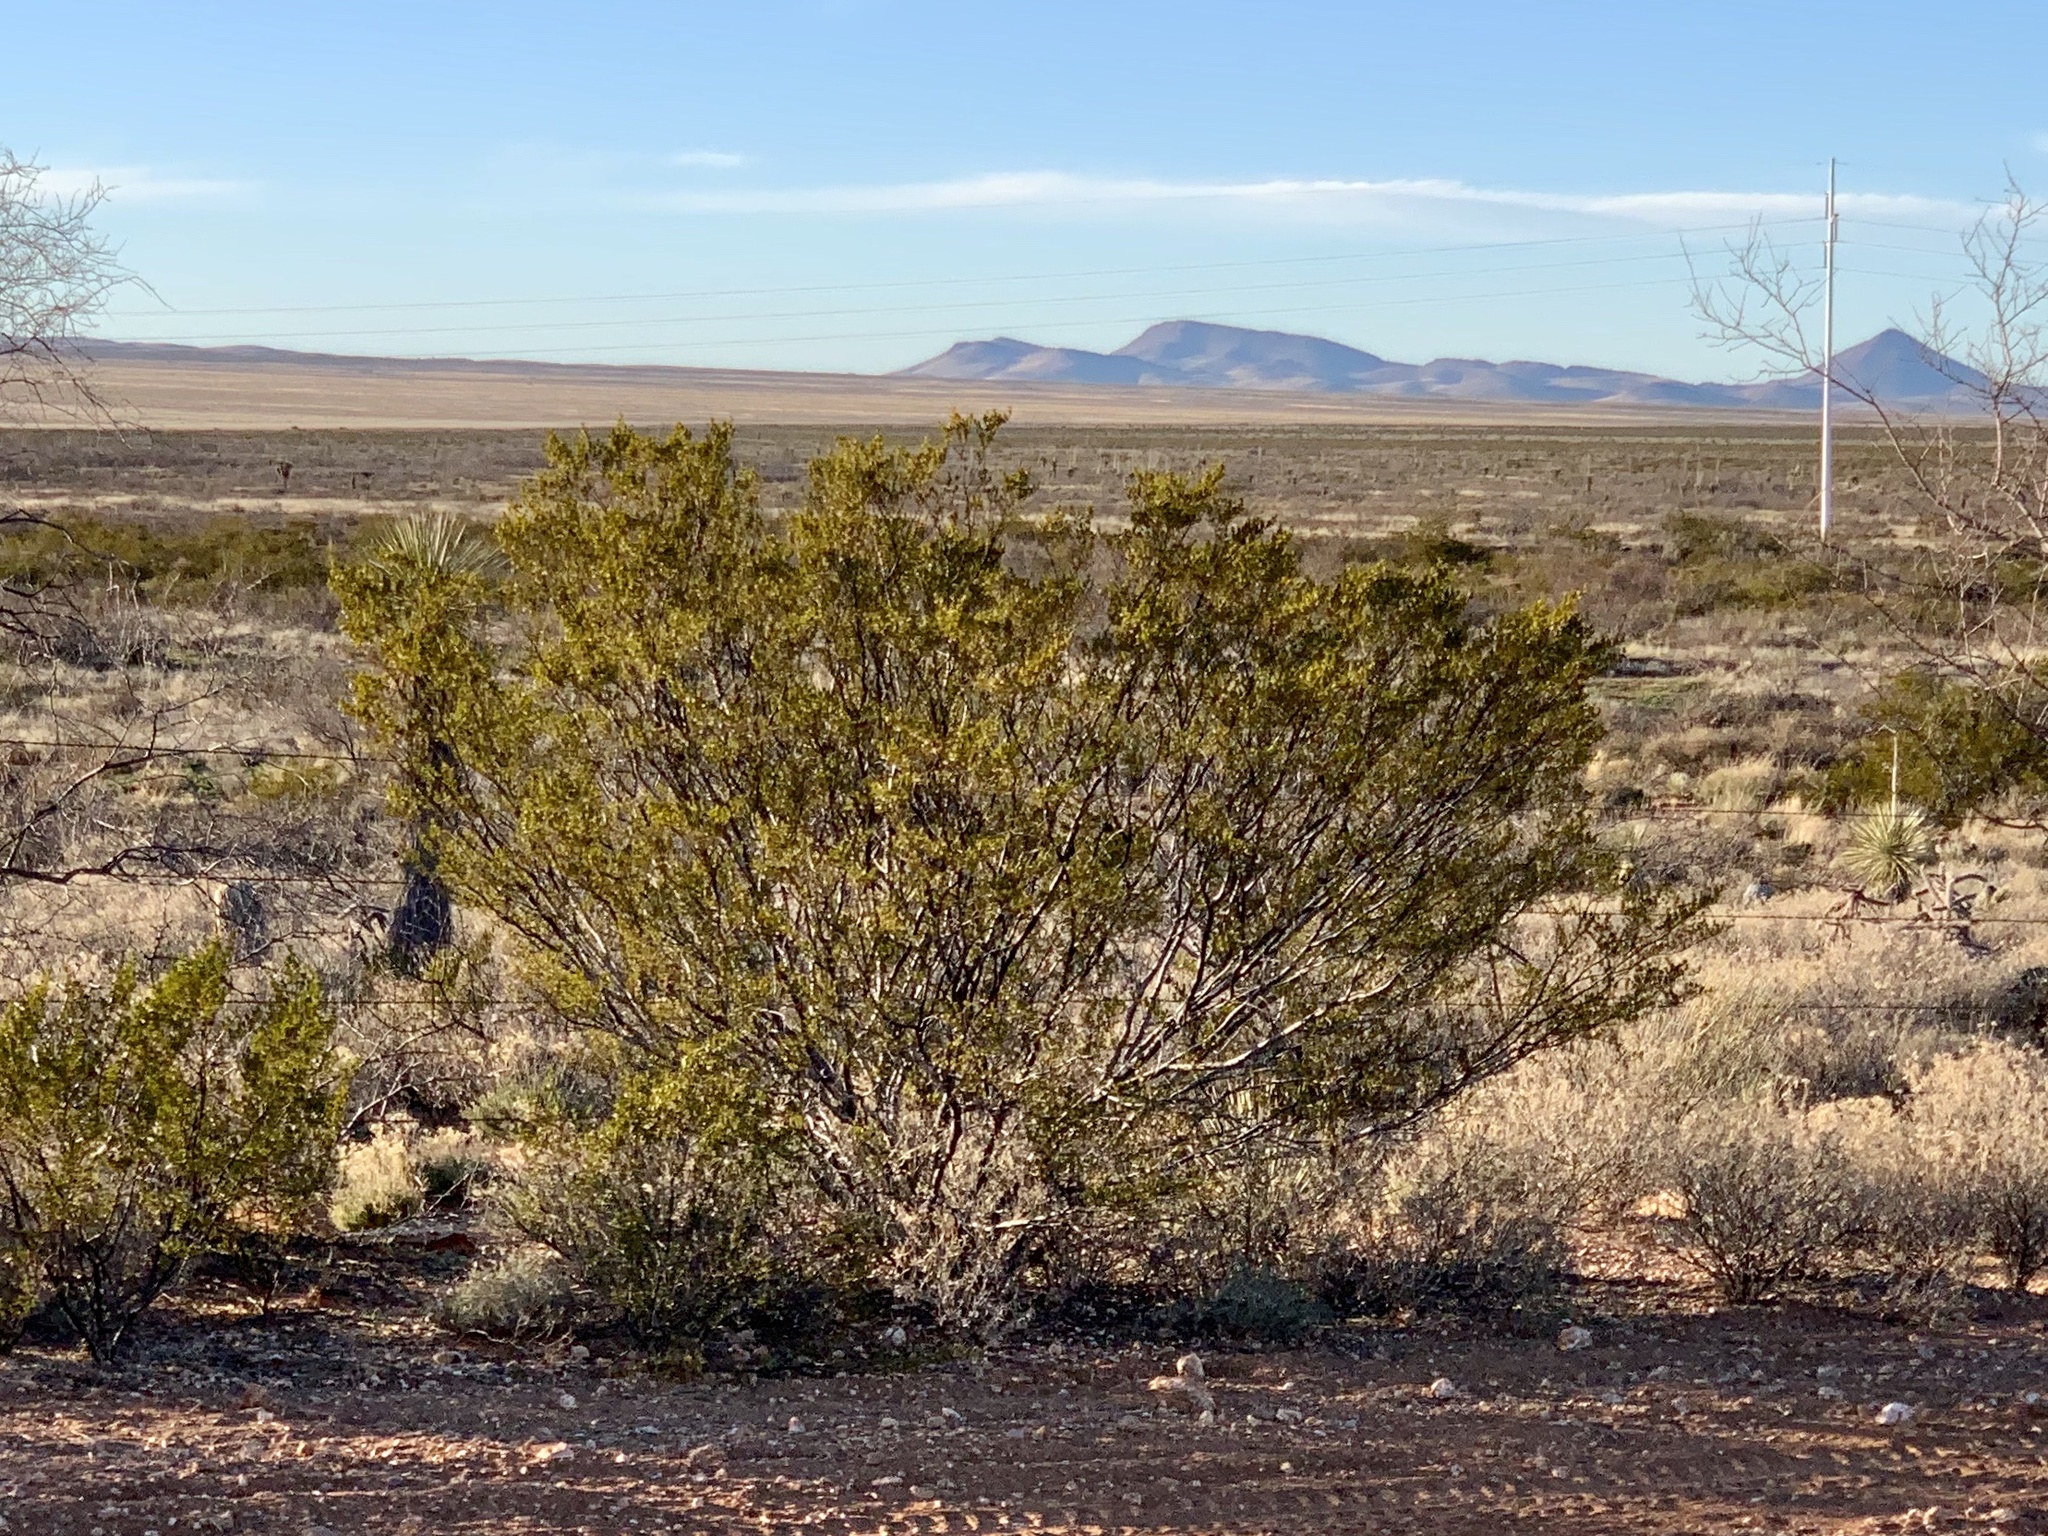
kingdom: Plantae
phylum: Tracheophyta
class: Magnoliopsida
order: Zygophyllales
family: Zygophyllaceae
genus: Larrea
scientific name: Larrea tridentata
